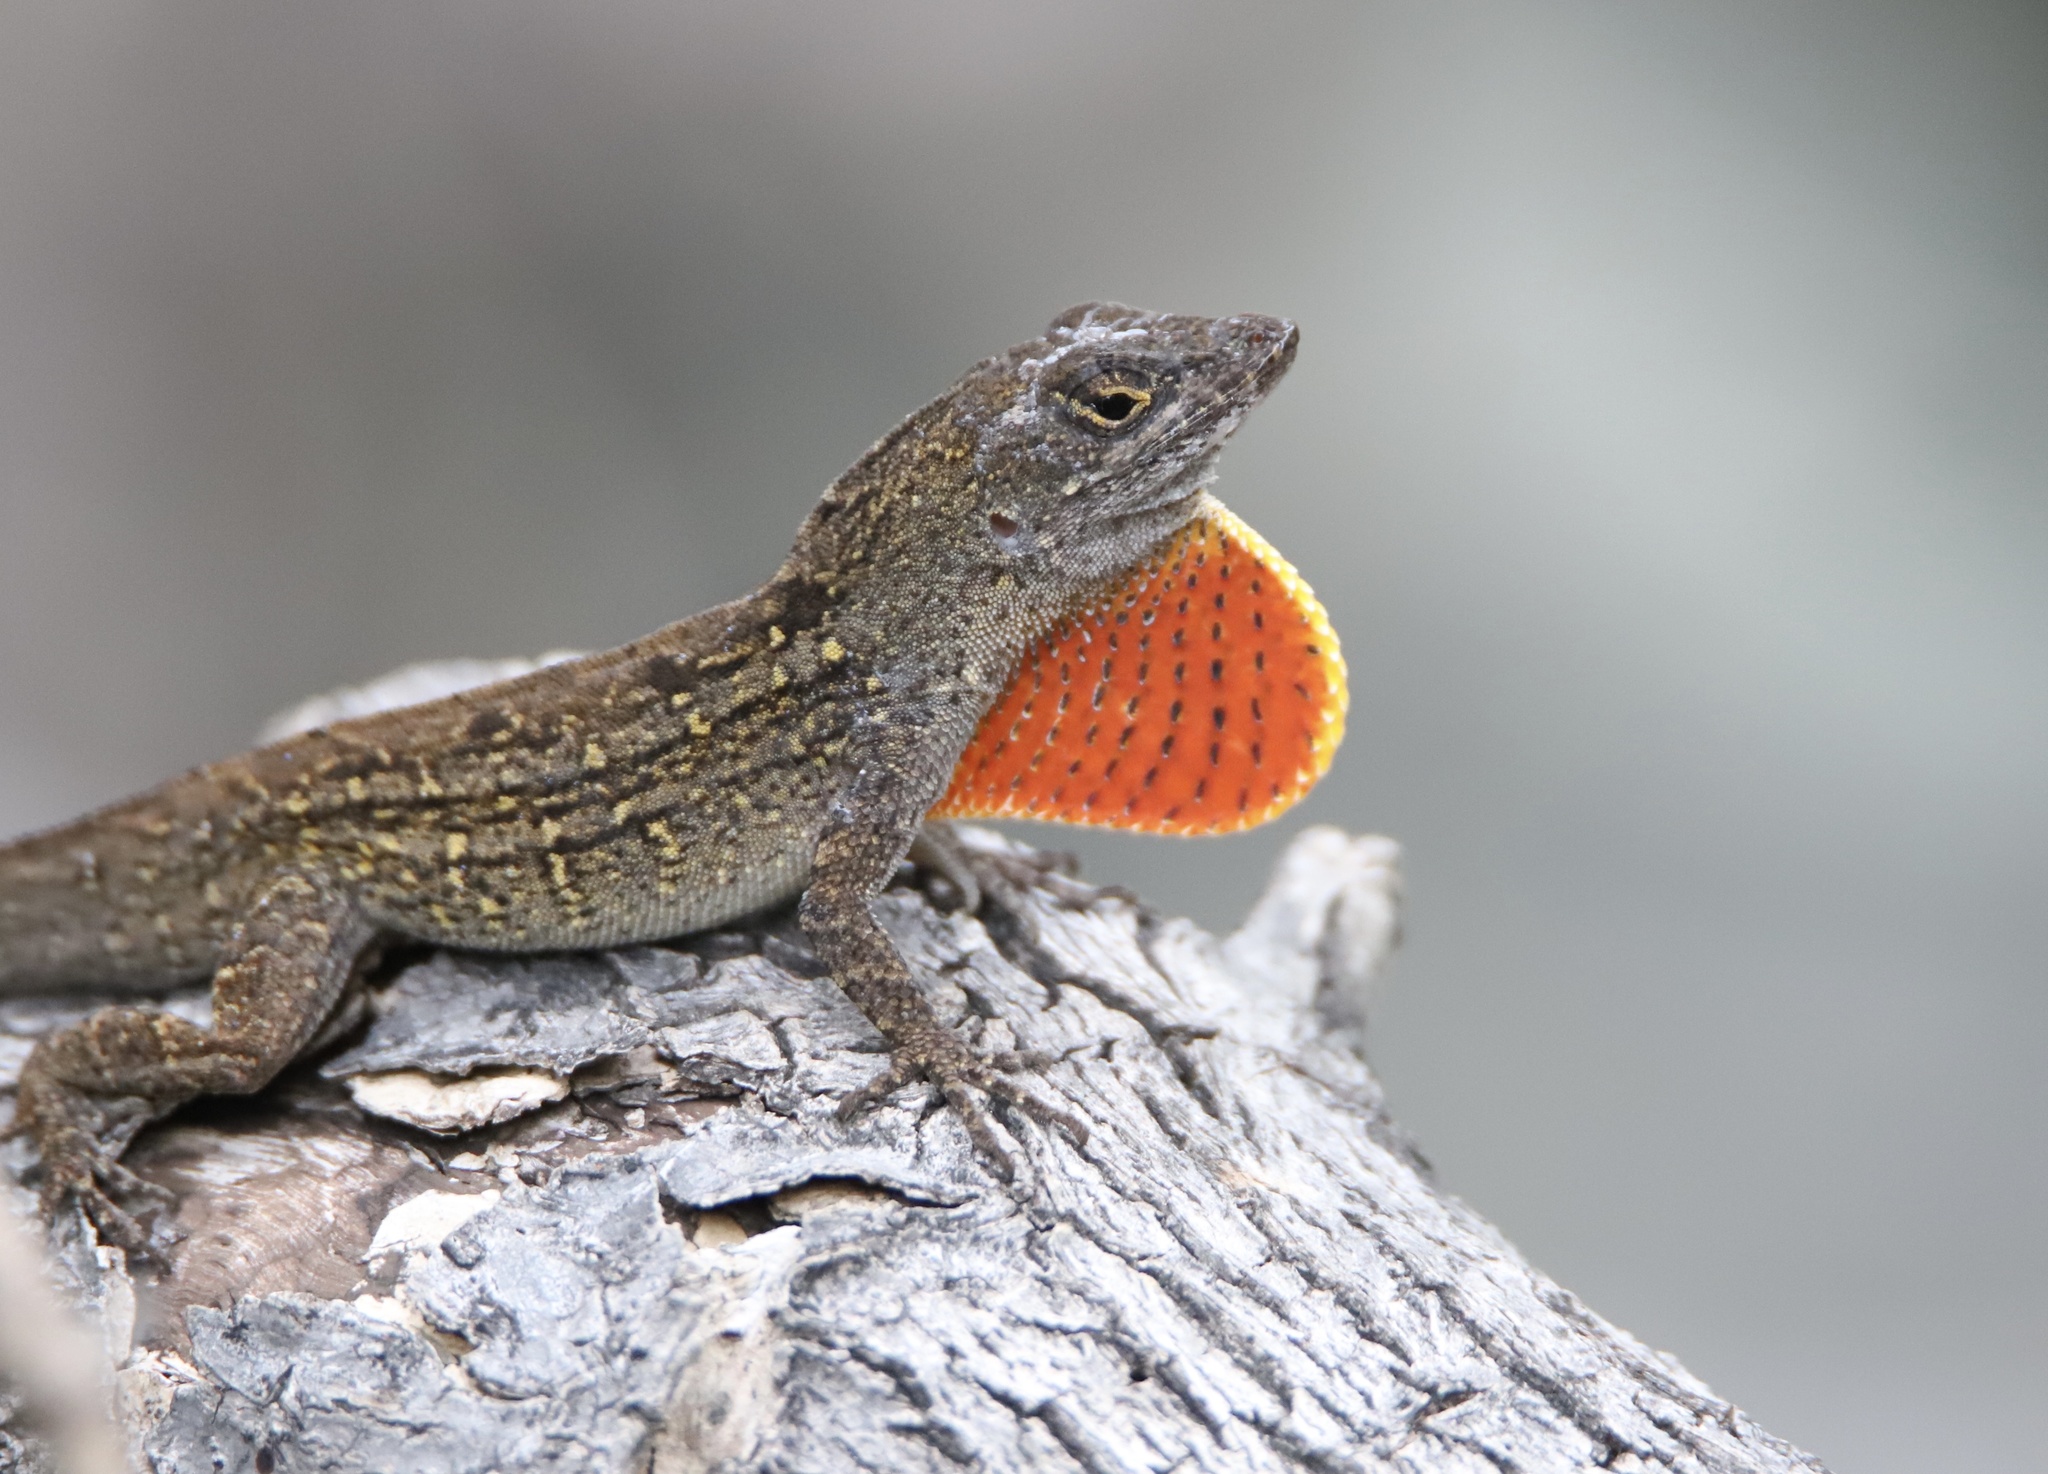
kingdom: Animalia
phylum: Chordata
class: Squamata
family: Dactyloidae
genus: Anolis
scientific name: Anolis sagrei
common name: Brown anole
